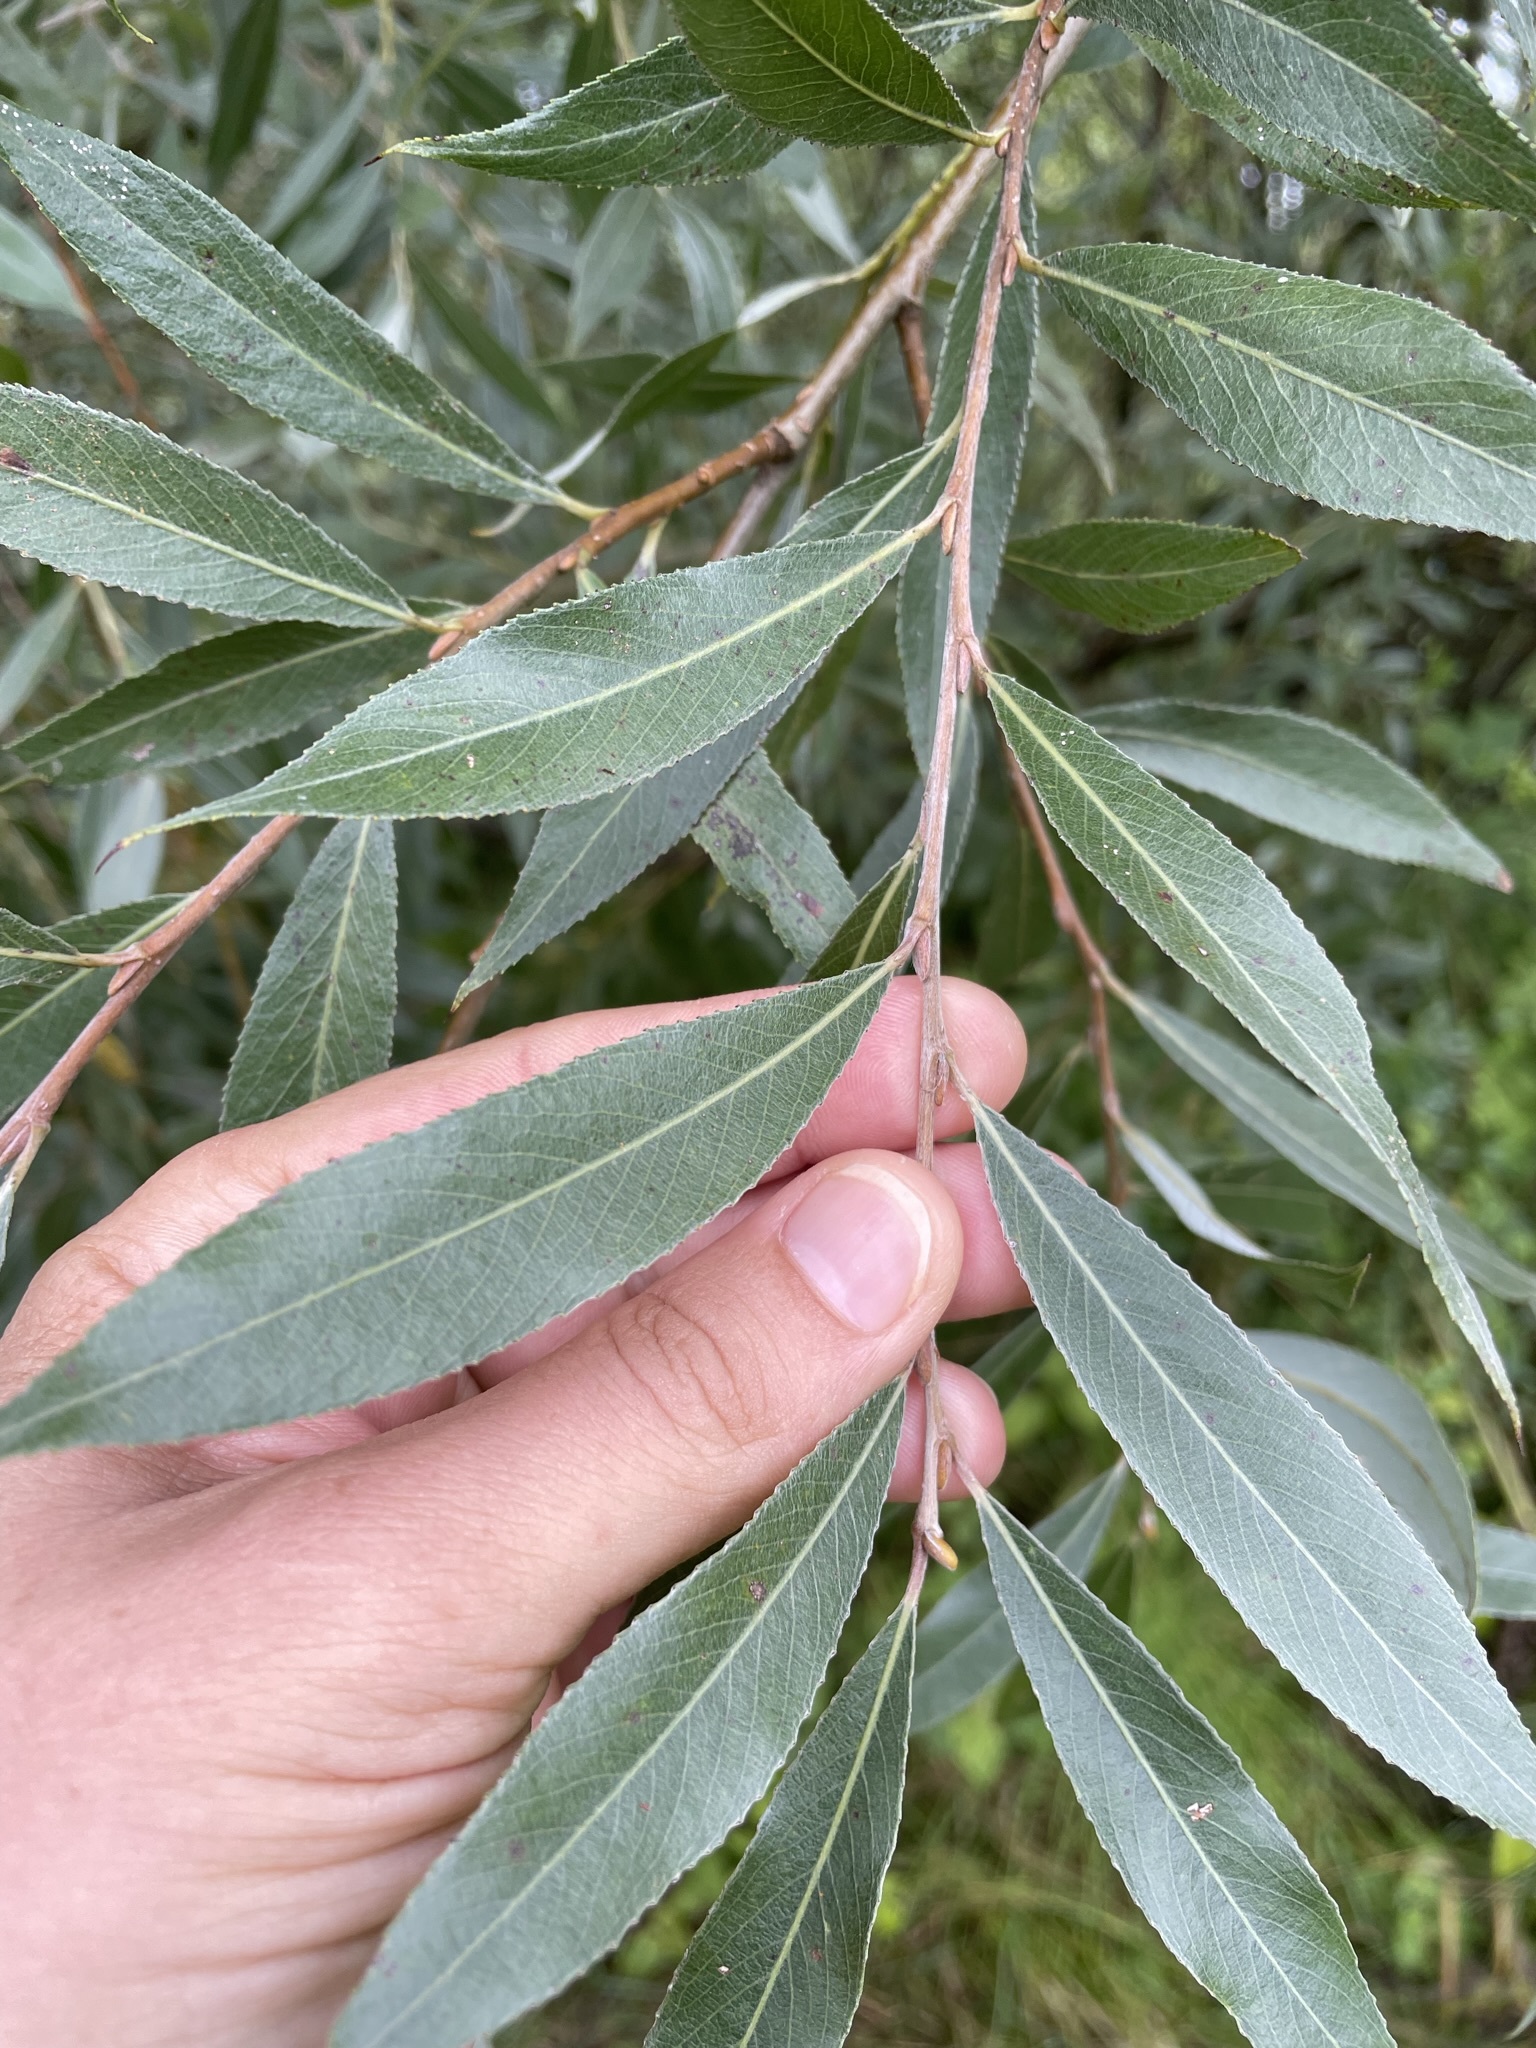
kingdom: Plantae
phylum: Tracheophyta
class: Magnoliopsida
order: Malpighiales
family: Salicaceae
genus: Salix
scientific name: Salix alba
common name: White willow
